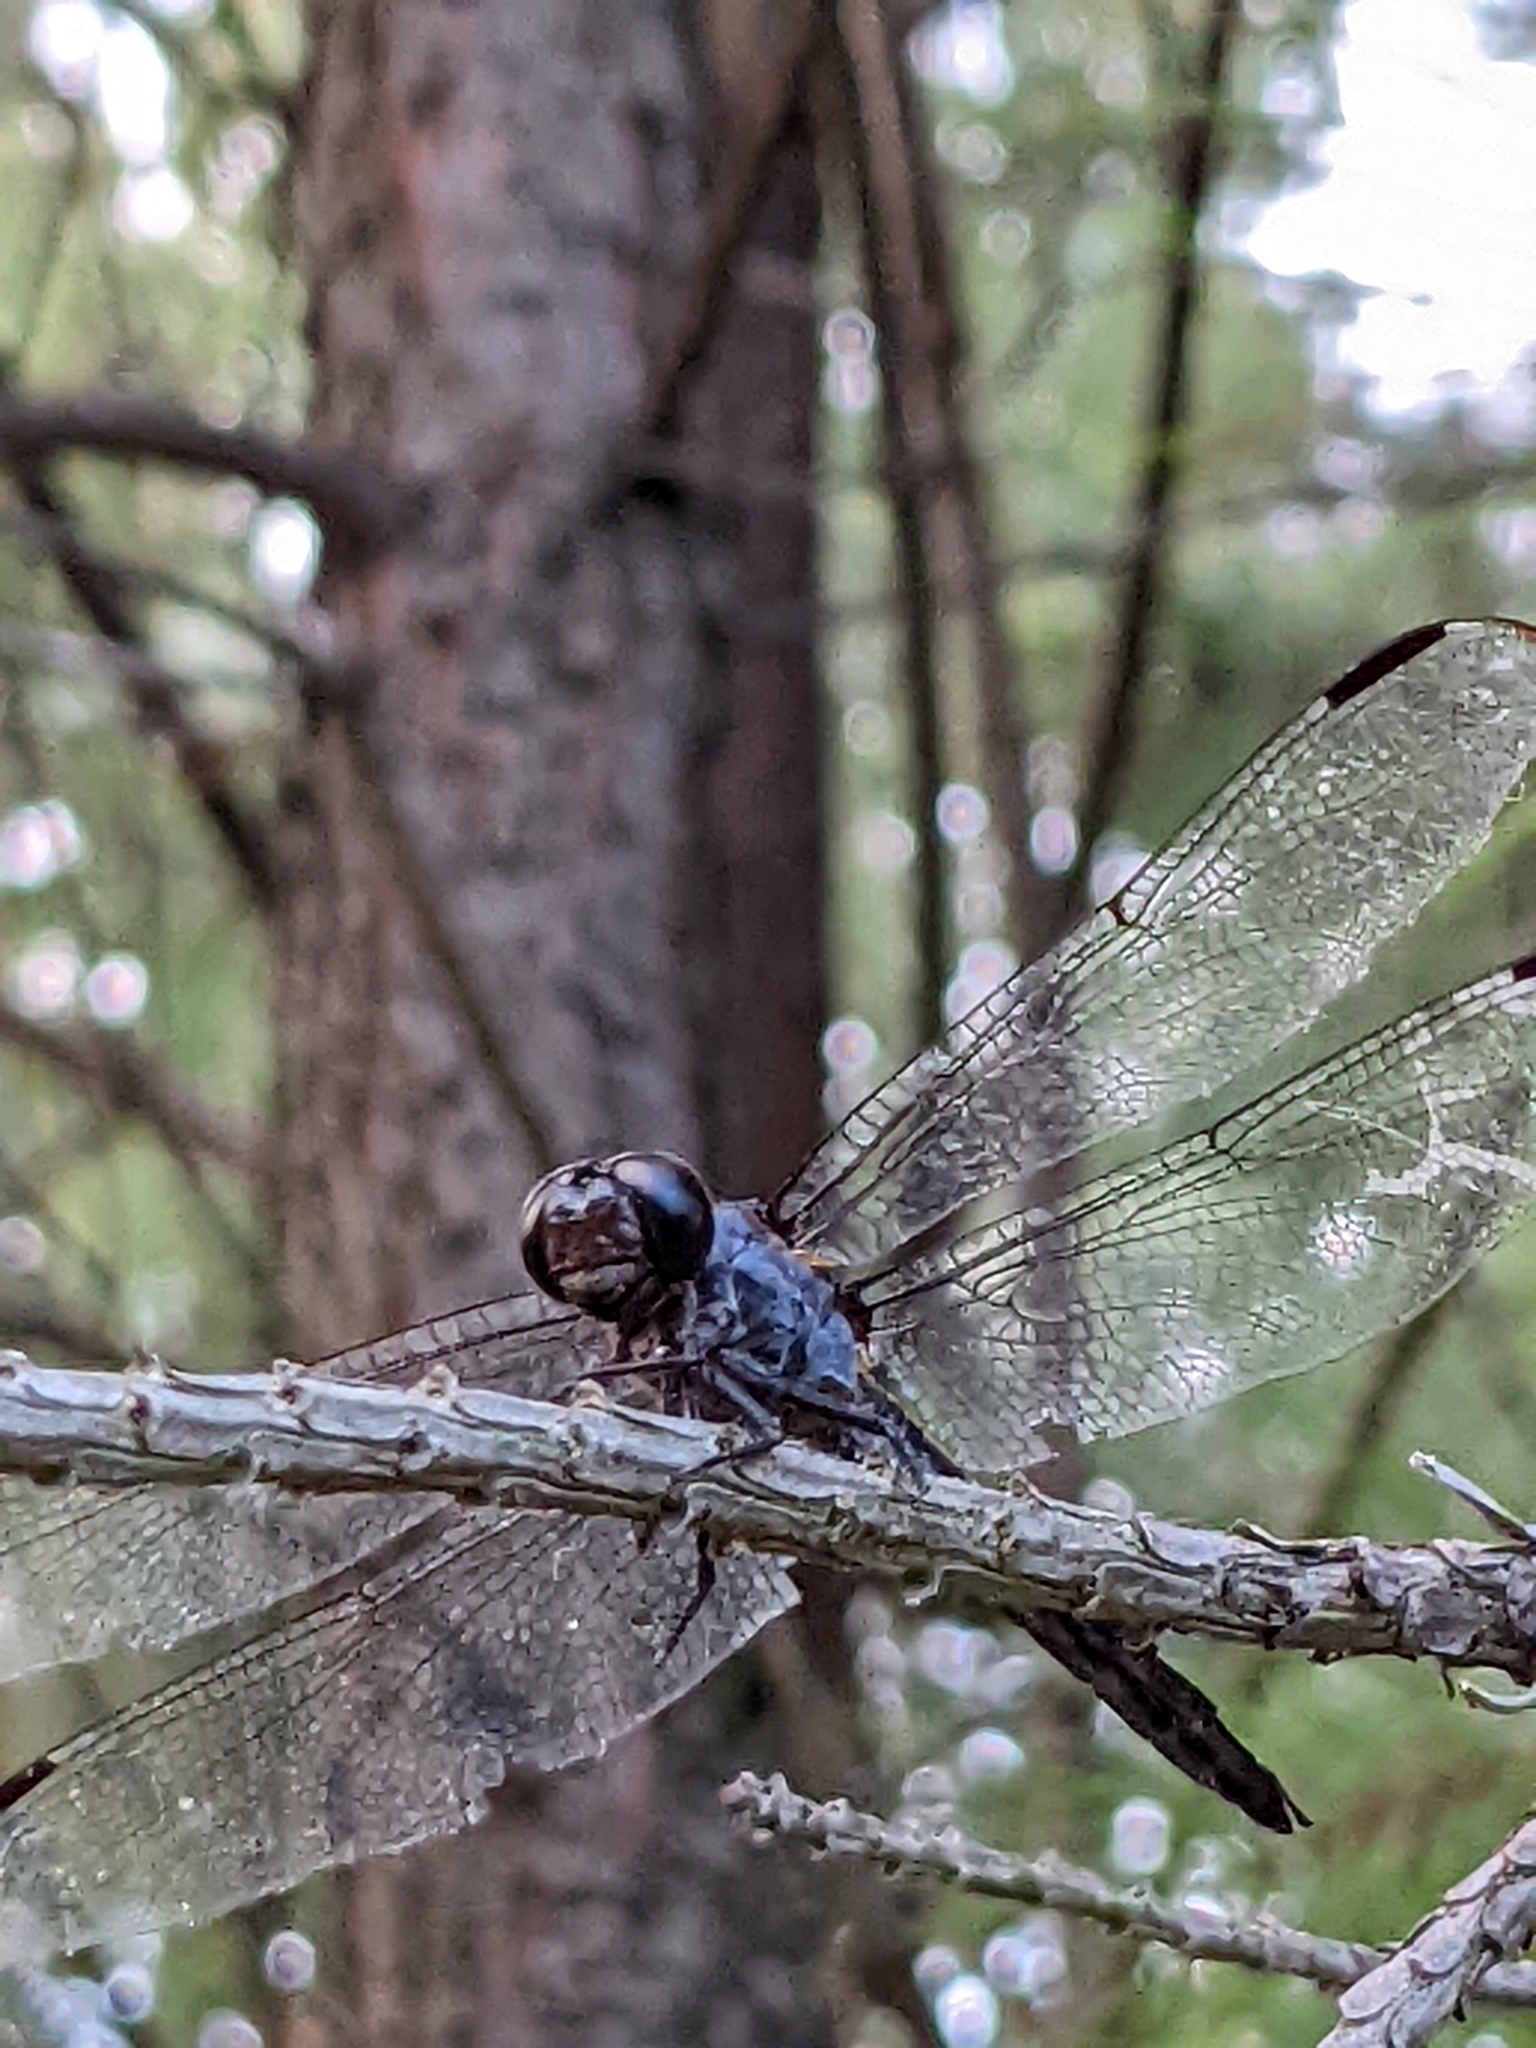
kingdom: Animalia
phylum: Arthropoda
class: Insecta
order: Odonata
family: Libellulidae
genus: Libellula
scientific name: Libellula incesta
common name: Slaty skimmer
